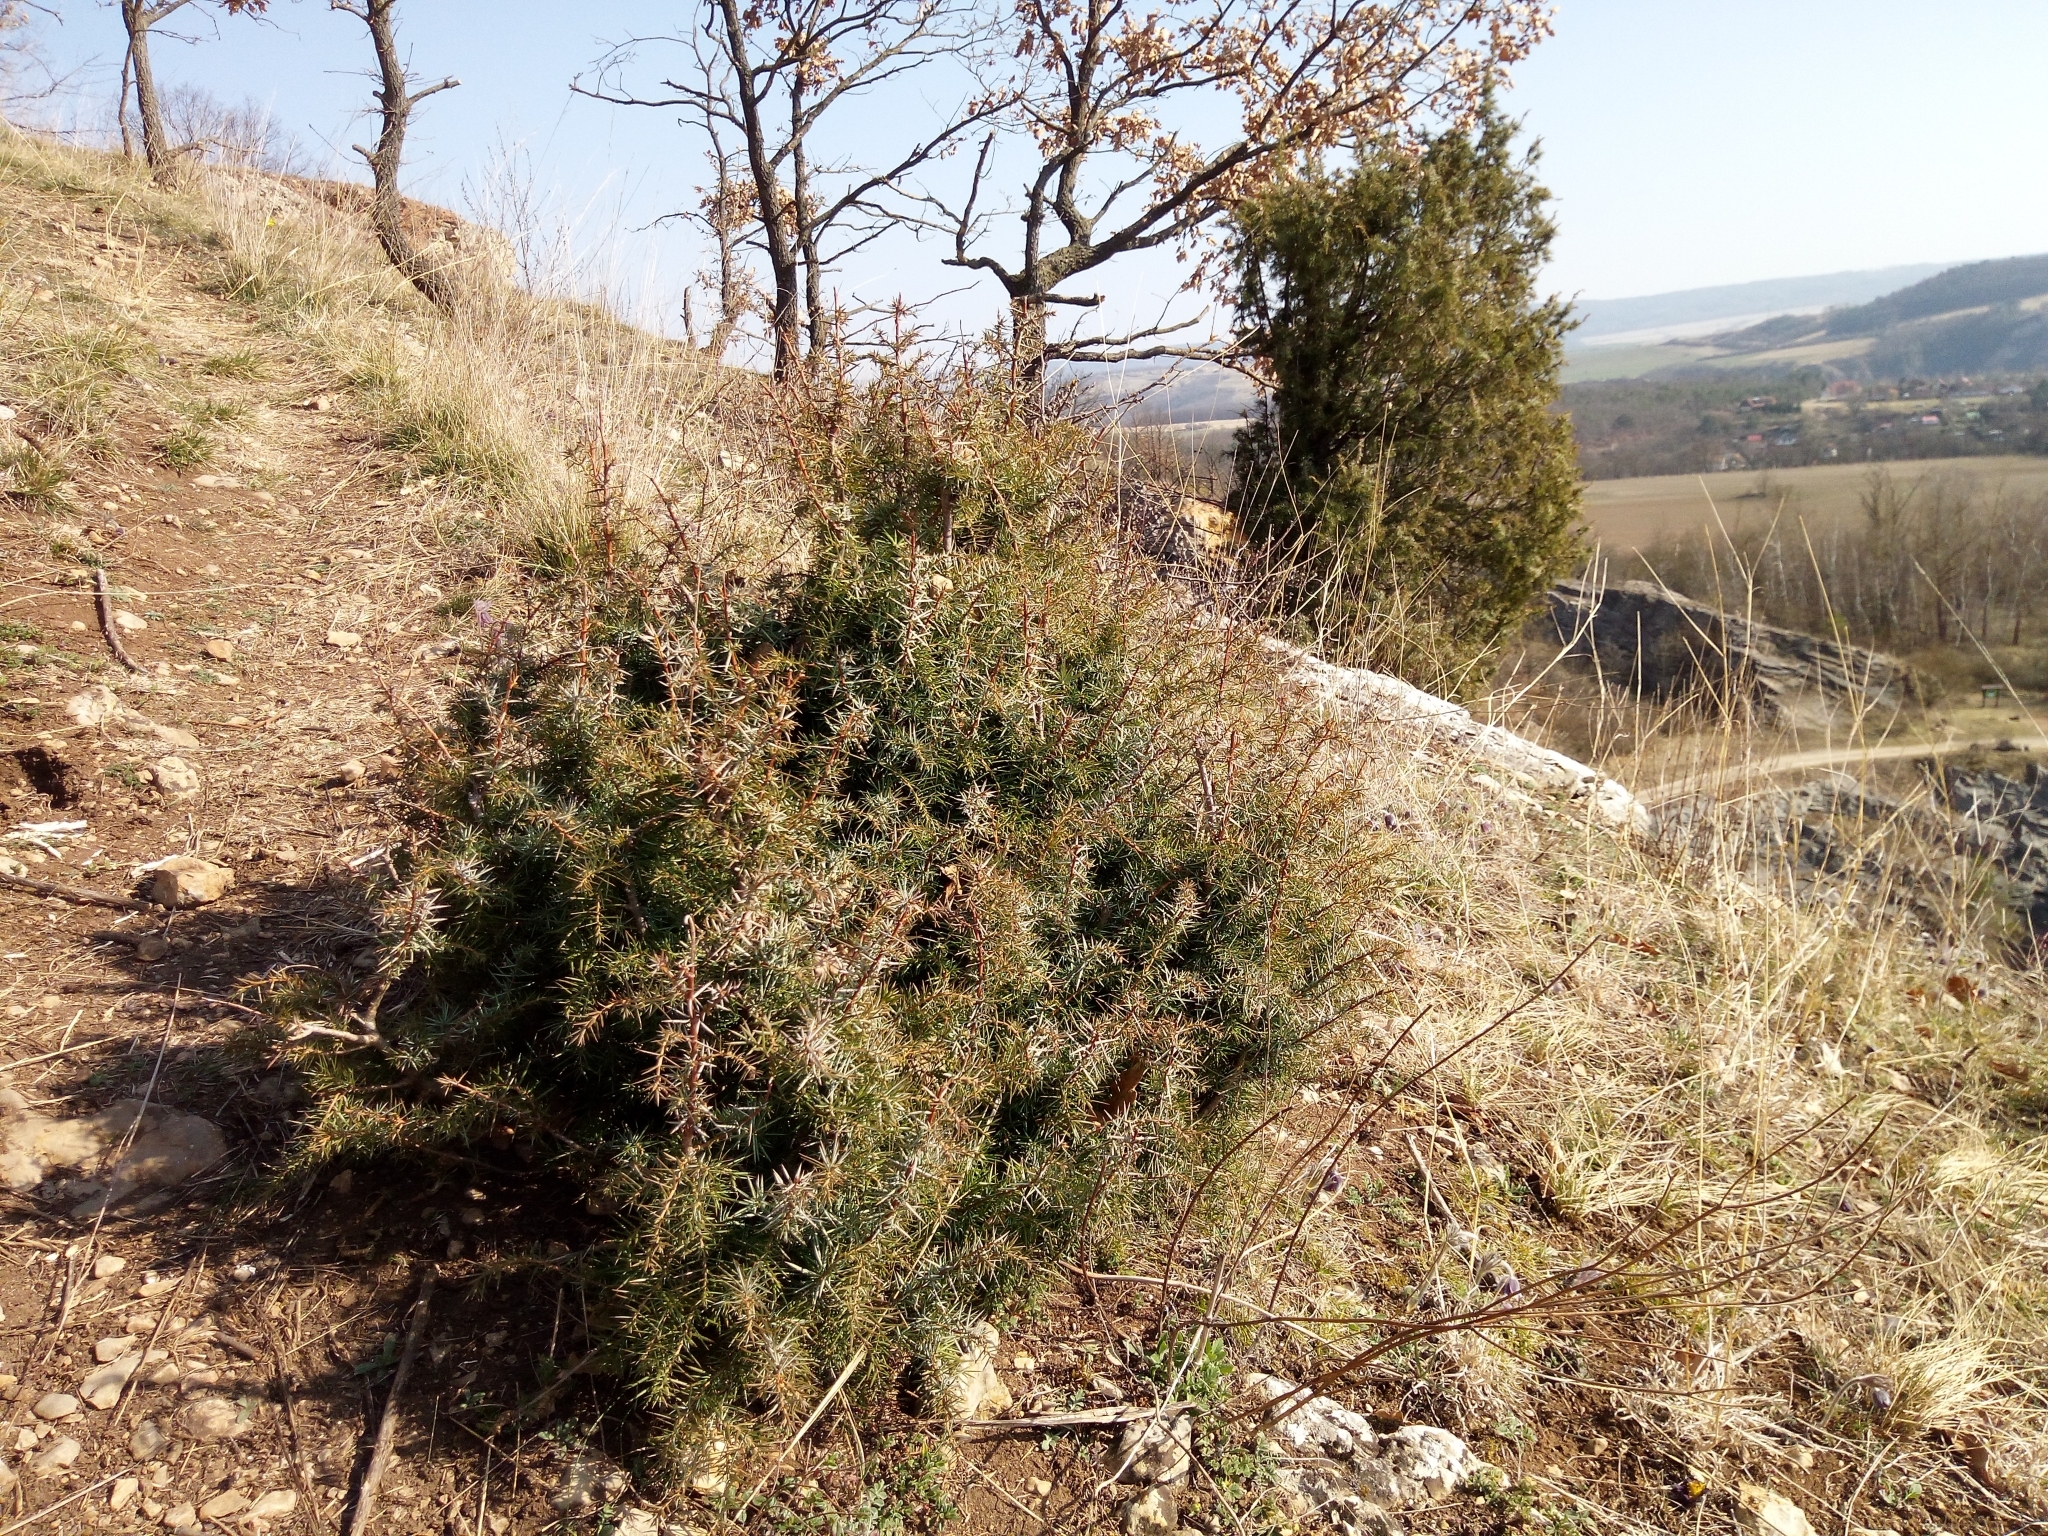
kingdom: Plantae
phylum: Tracheophyta
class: Pinopsida
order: Pinales
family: Cupressaceae
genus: Juniperus
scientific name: Juniperus communis
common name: Common juniper
